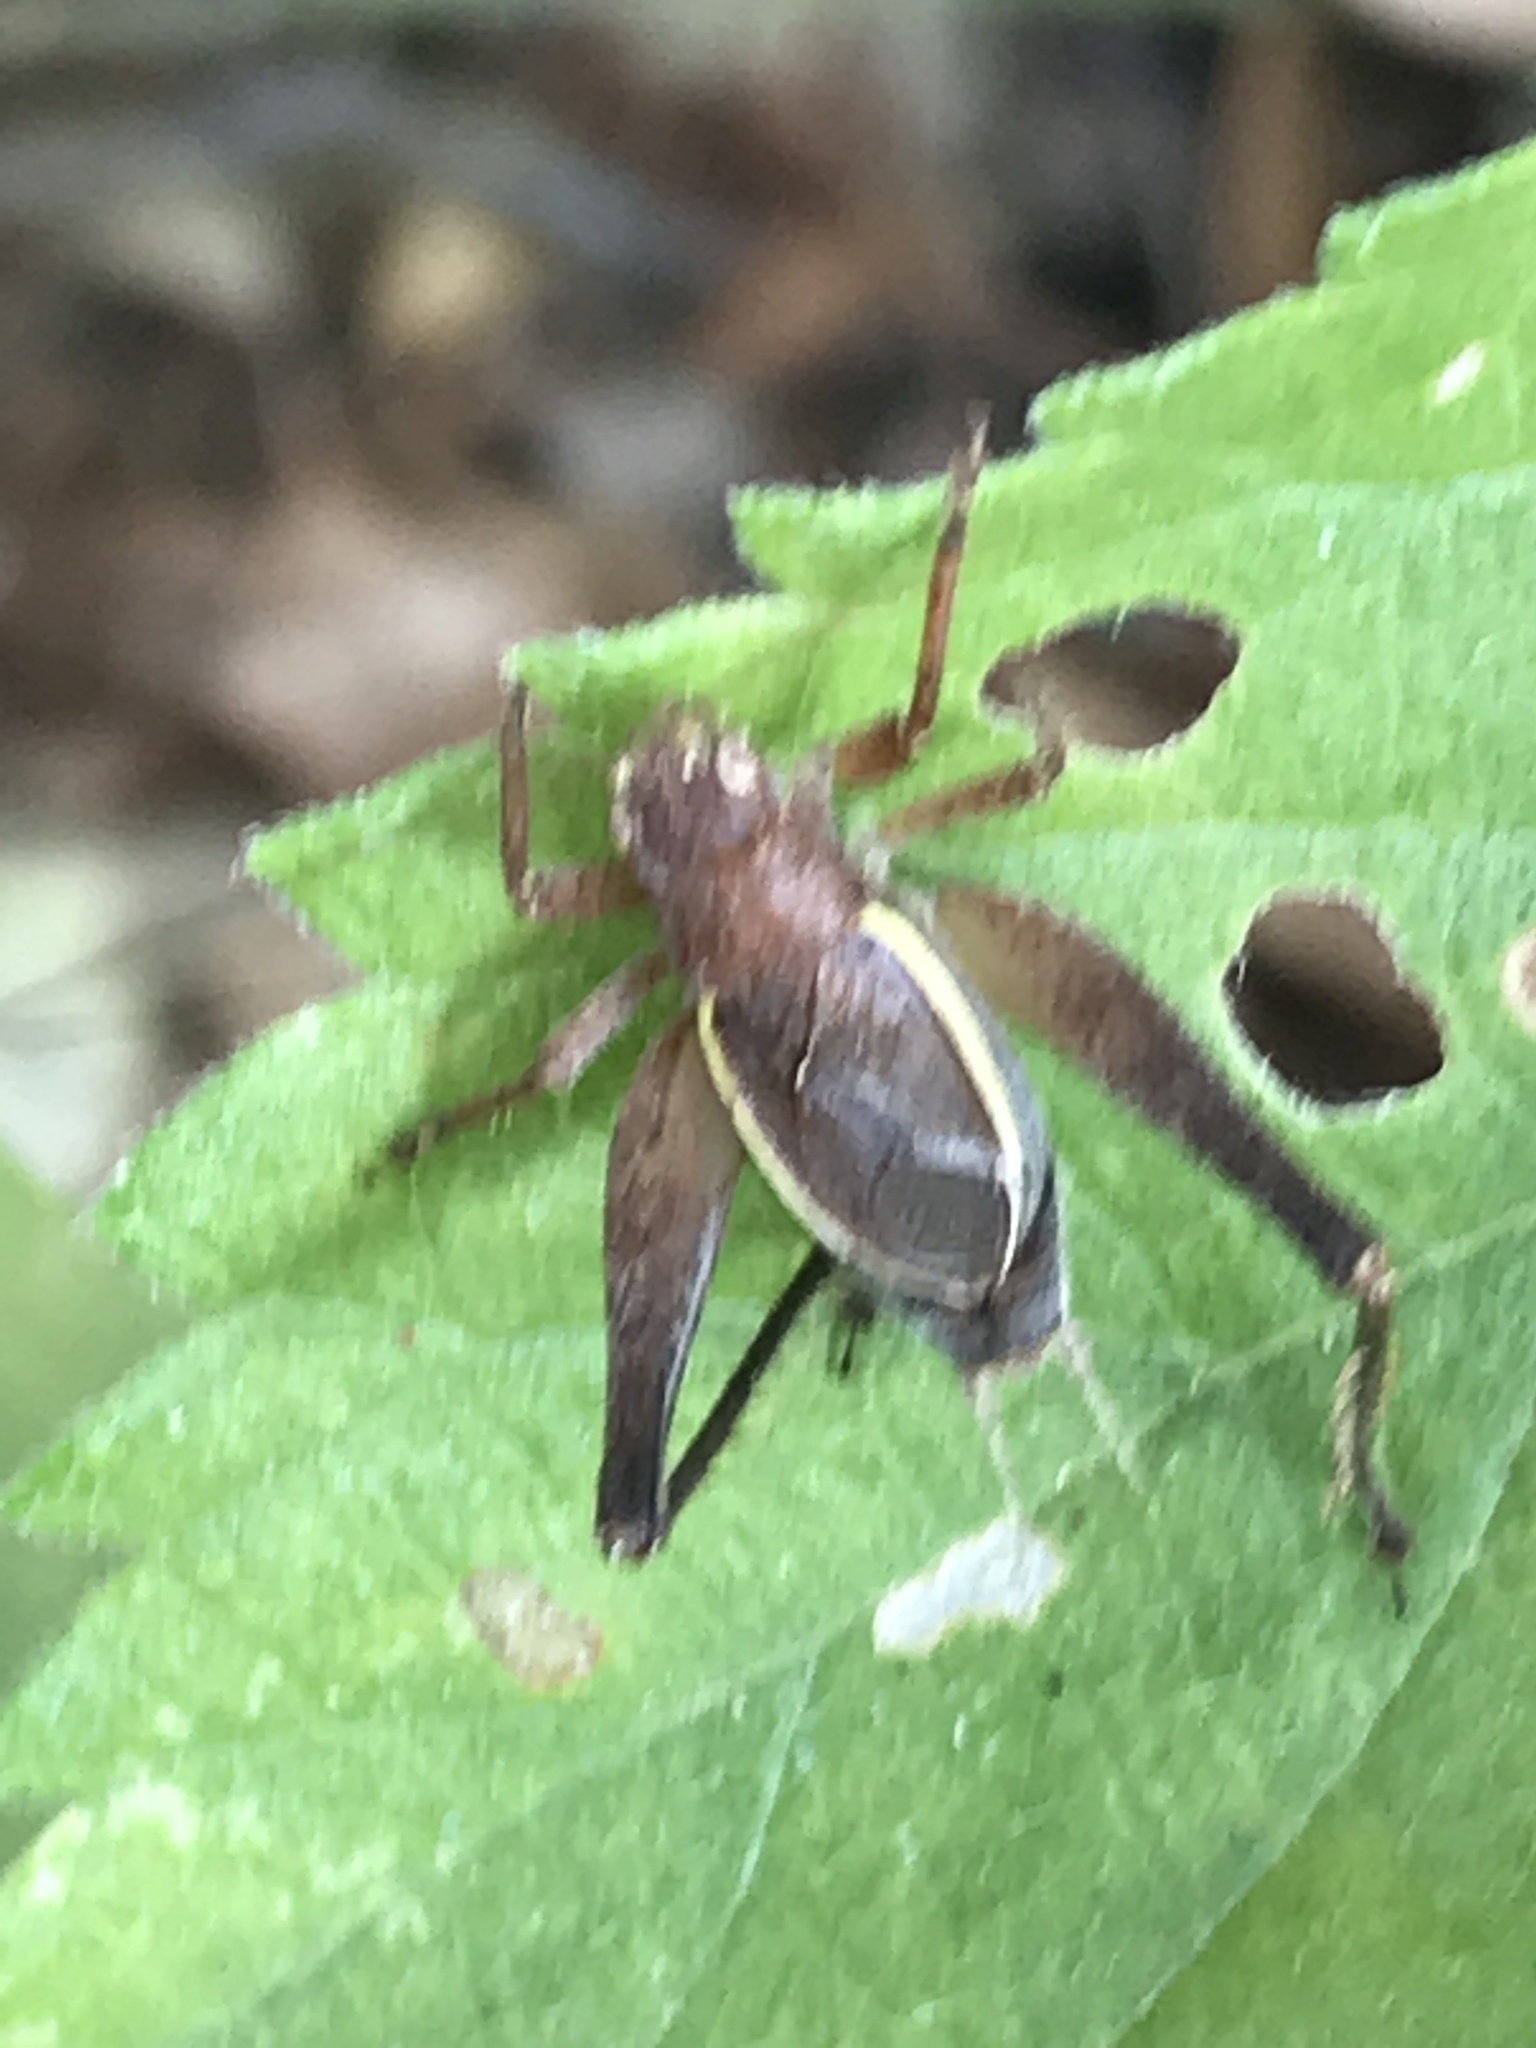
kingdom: Animalia
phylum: Arthropoda
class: Insecta
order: Orthoptera
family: Gryllidae
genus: Hapithus
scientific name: Hapithus agitator
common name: Restless bush cricket
